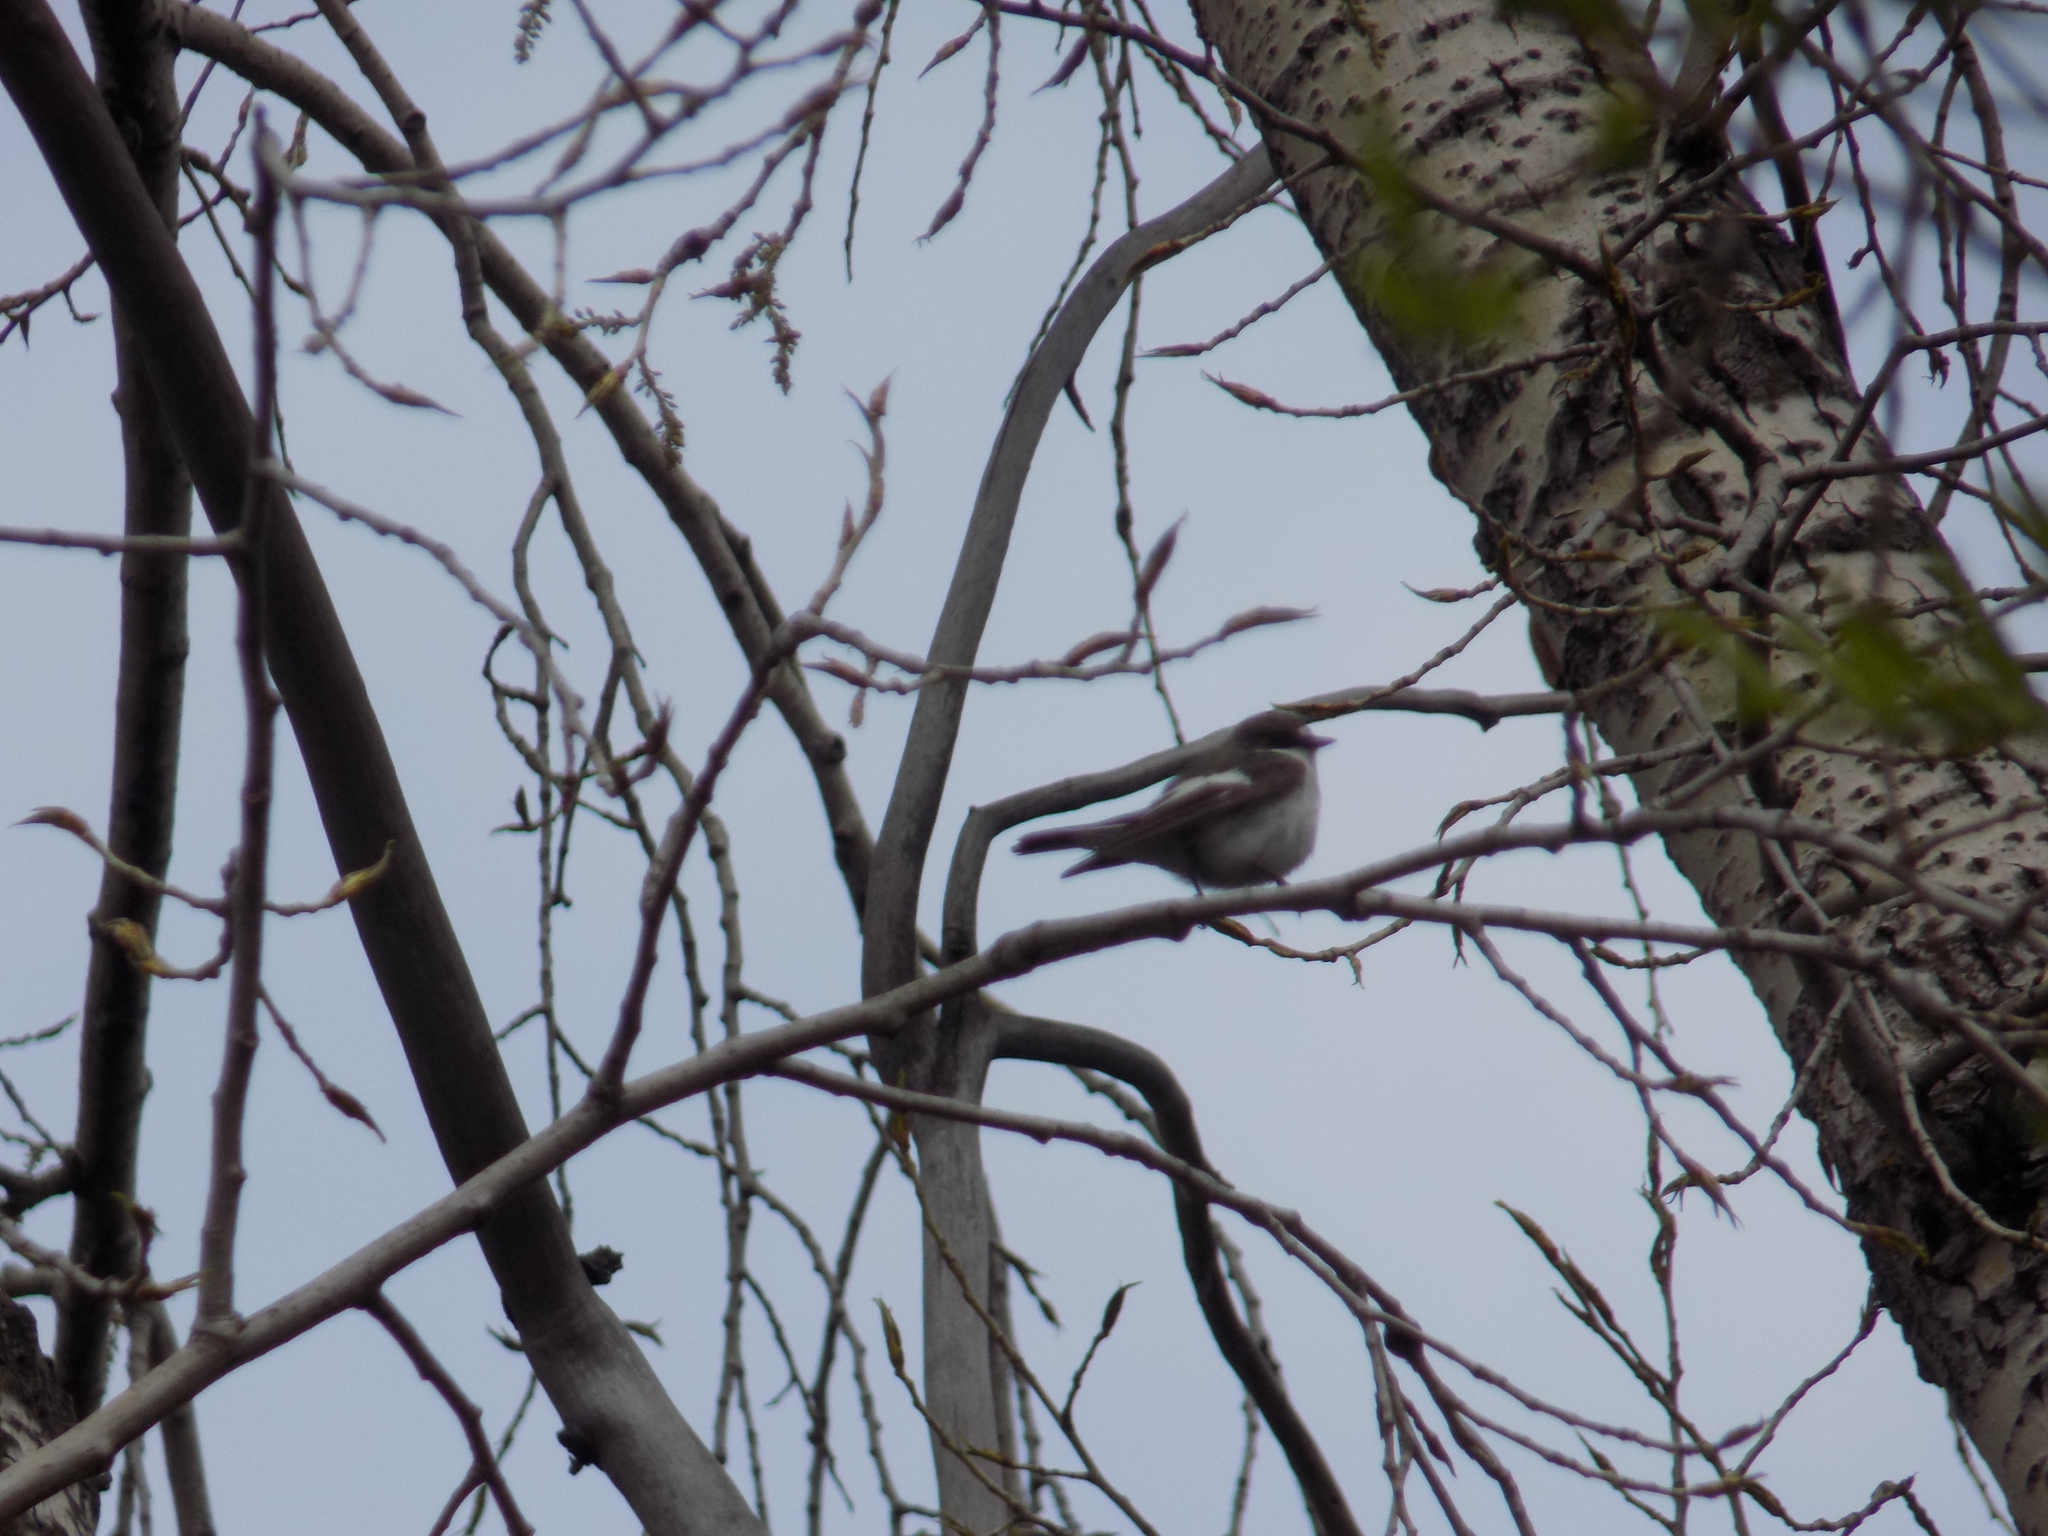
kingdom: Animalia
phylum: Chordata
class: Aves
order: Passeriformes
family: Muscicapidae
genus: Ficedula
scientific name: Ficedula hypoleuca
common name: European pied flycatcher
